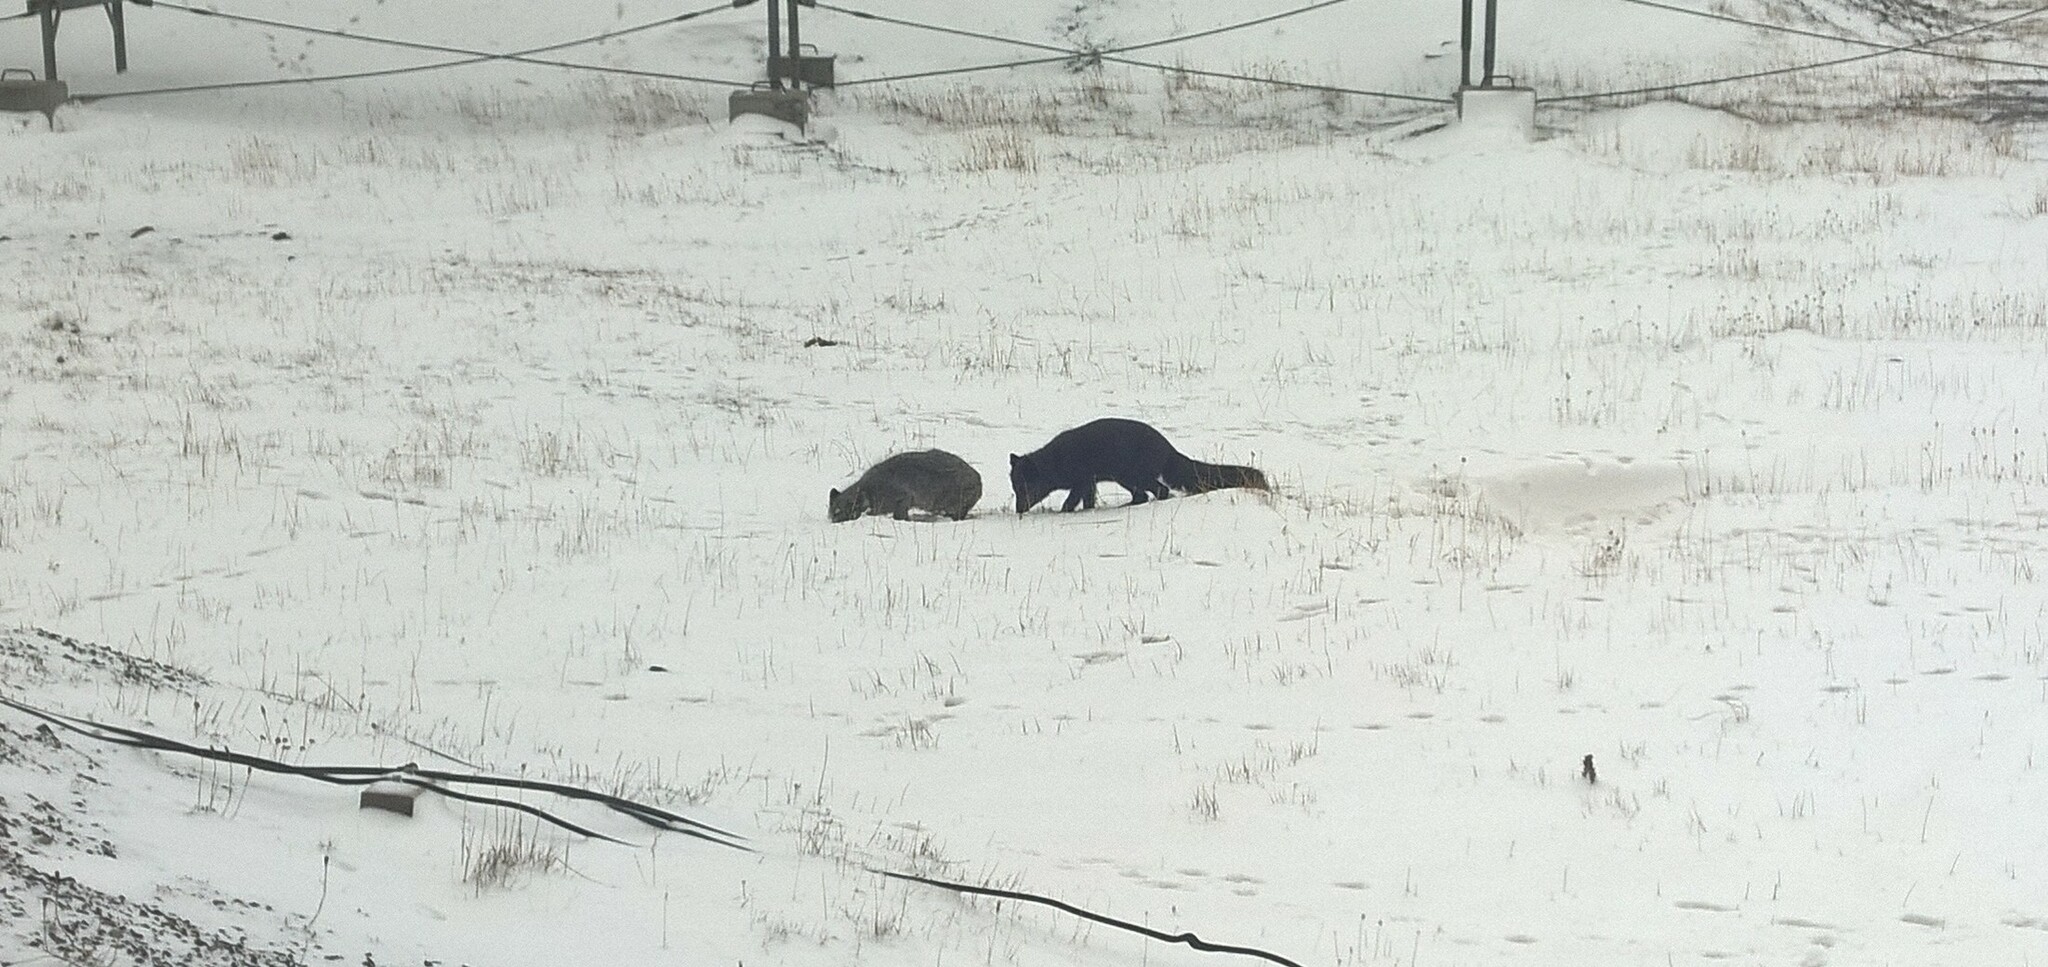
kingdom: Animalia
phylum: Chordata
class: Mammalia
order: Carnivora
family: Canidae
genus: Vulpes
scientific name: Vulpes lagopus
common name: Arctic fox
